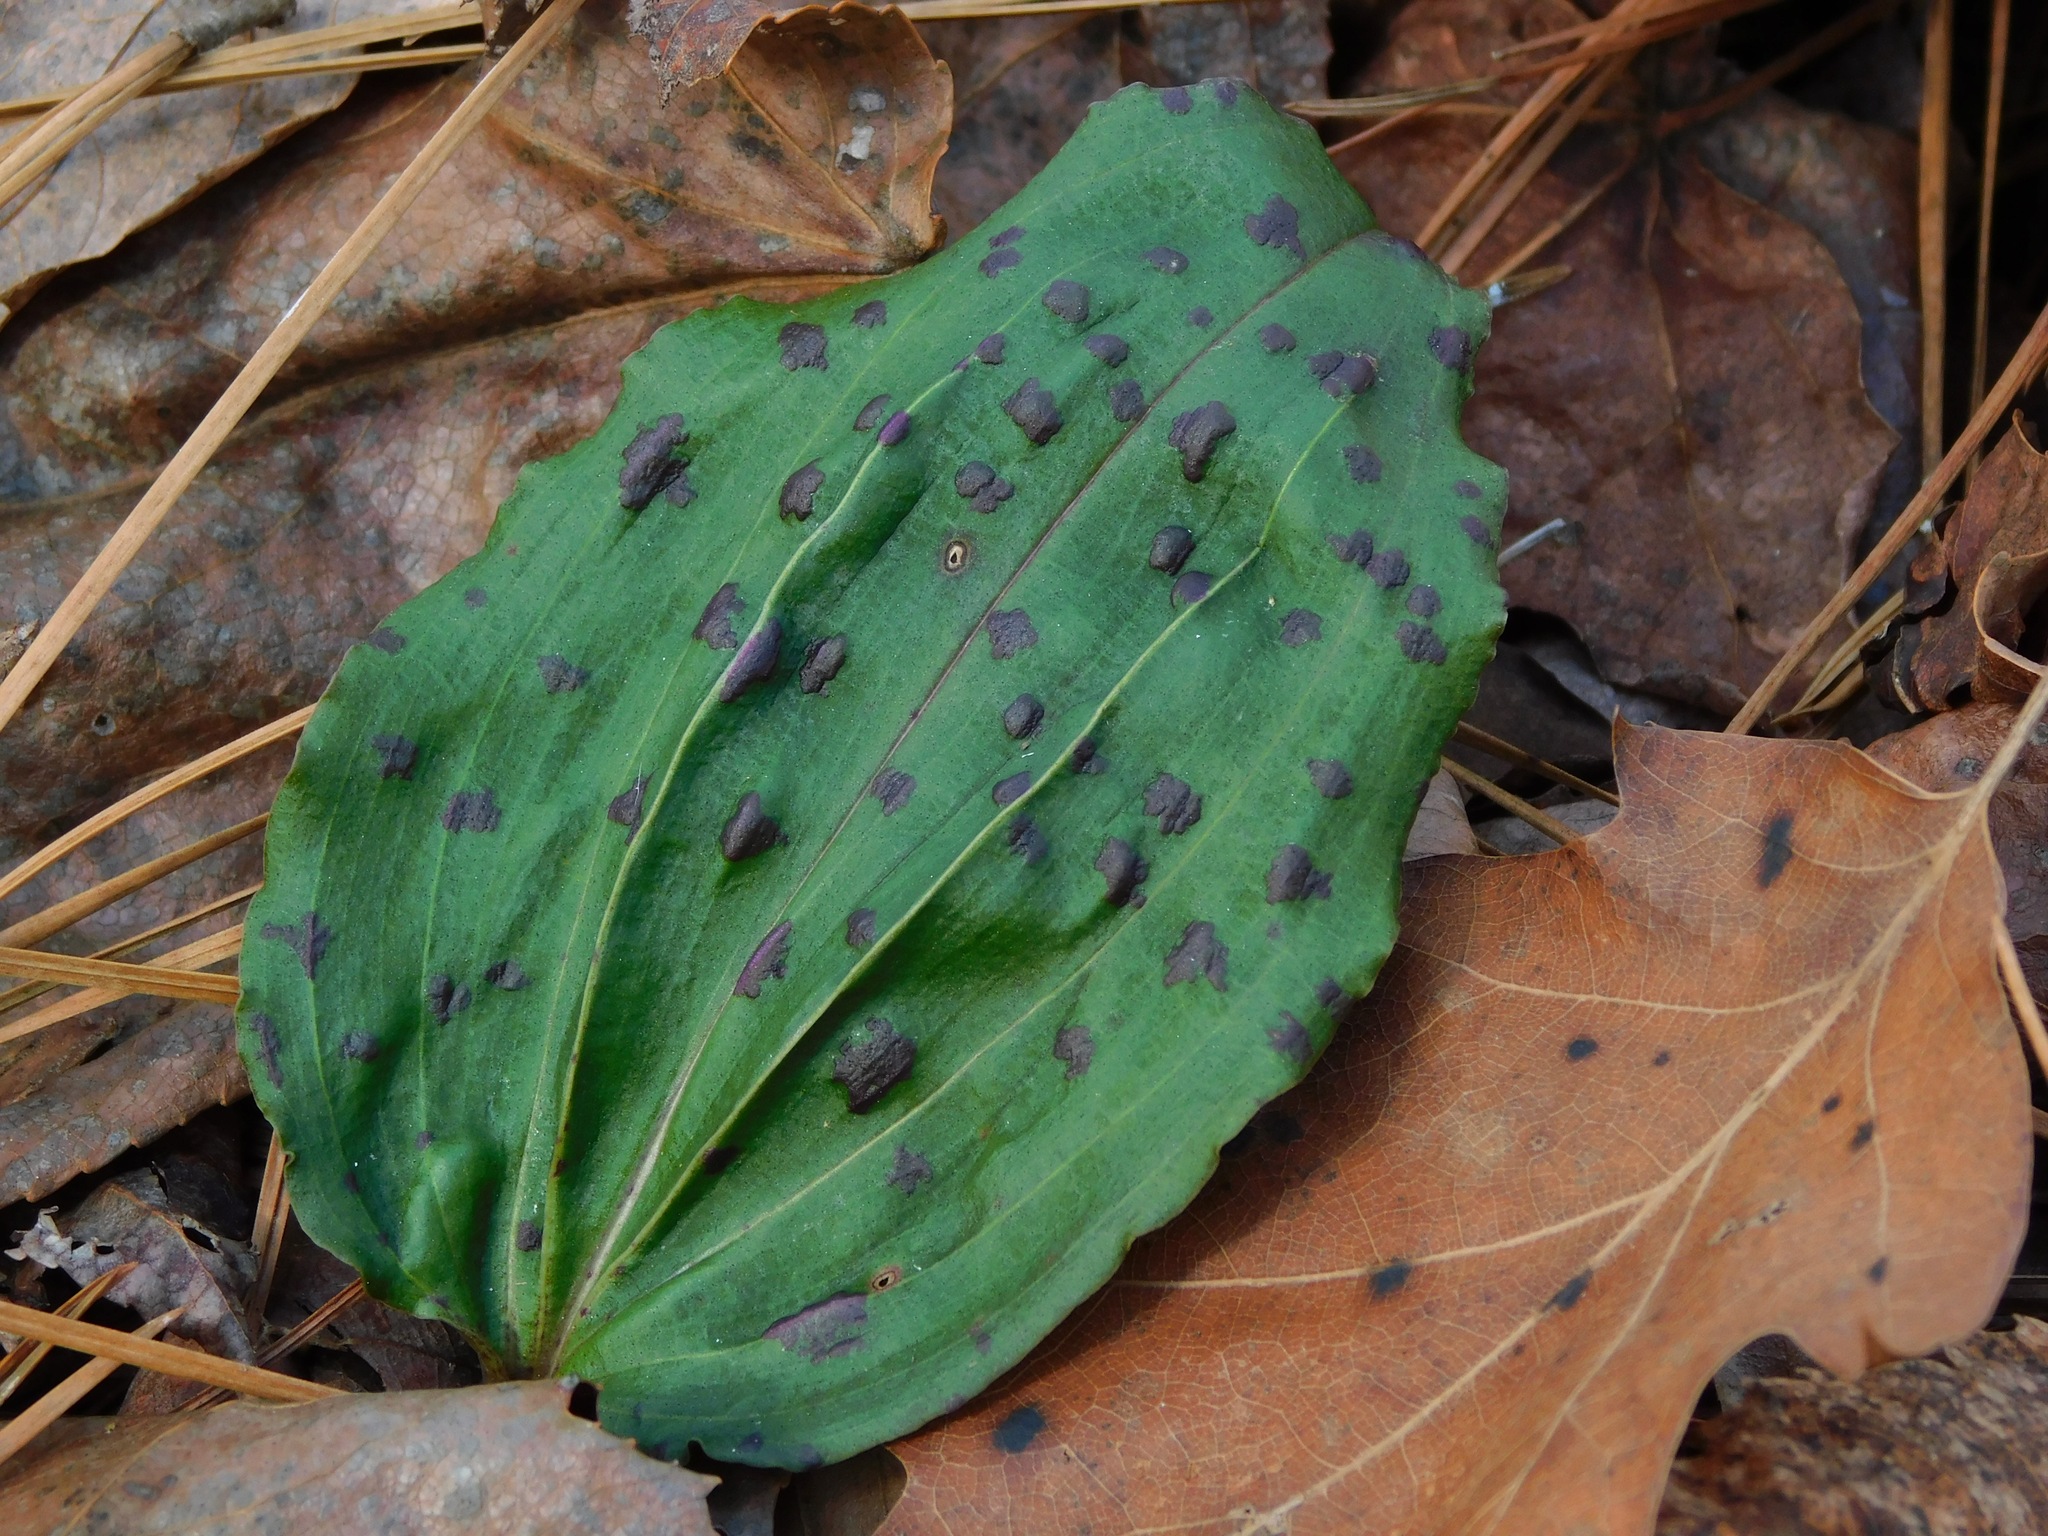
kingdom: Plantae
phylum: Tracheophyta
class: Liliopsida
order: Asparagales
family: Orchidaceae
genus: Tipularia
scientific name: Tipularia discolor
